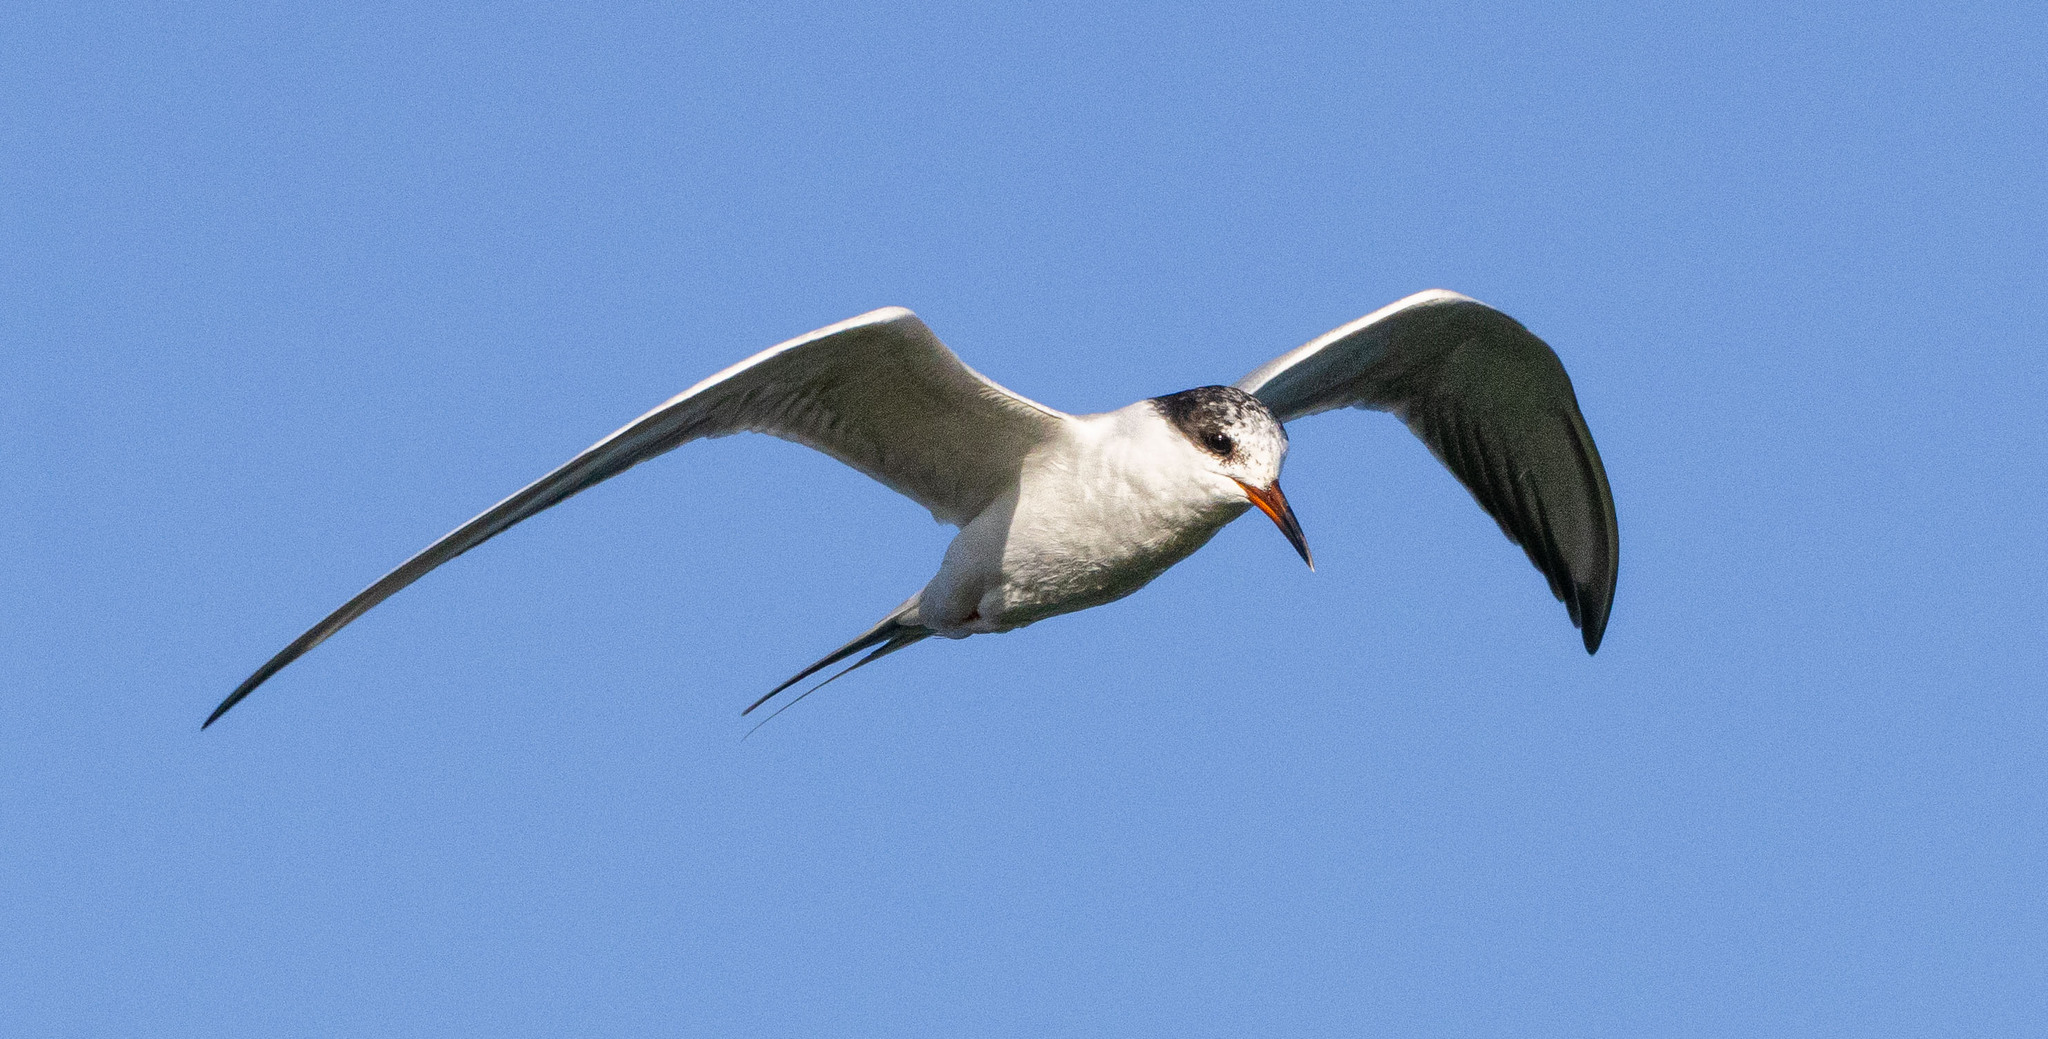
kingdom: Animalia
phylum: Chordata
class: Aves
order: Charadriiformes
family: Laridae
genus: Sterna
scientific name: Sterna forsteri
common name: Forster's tern
